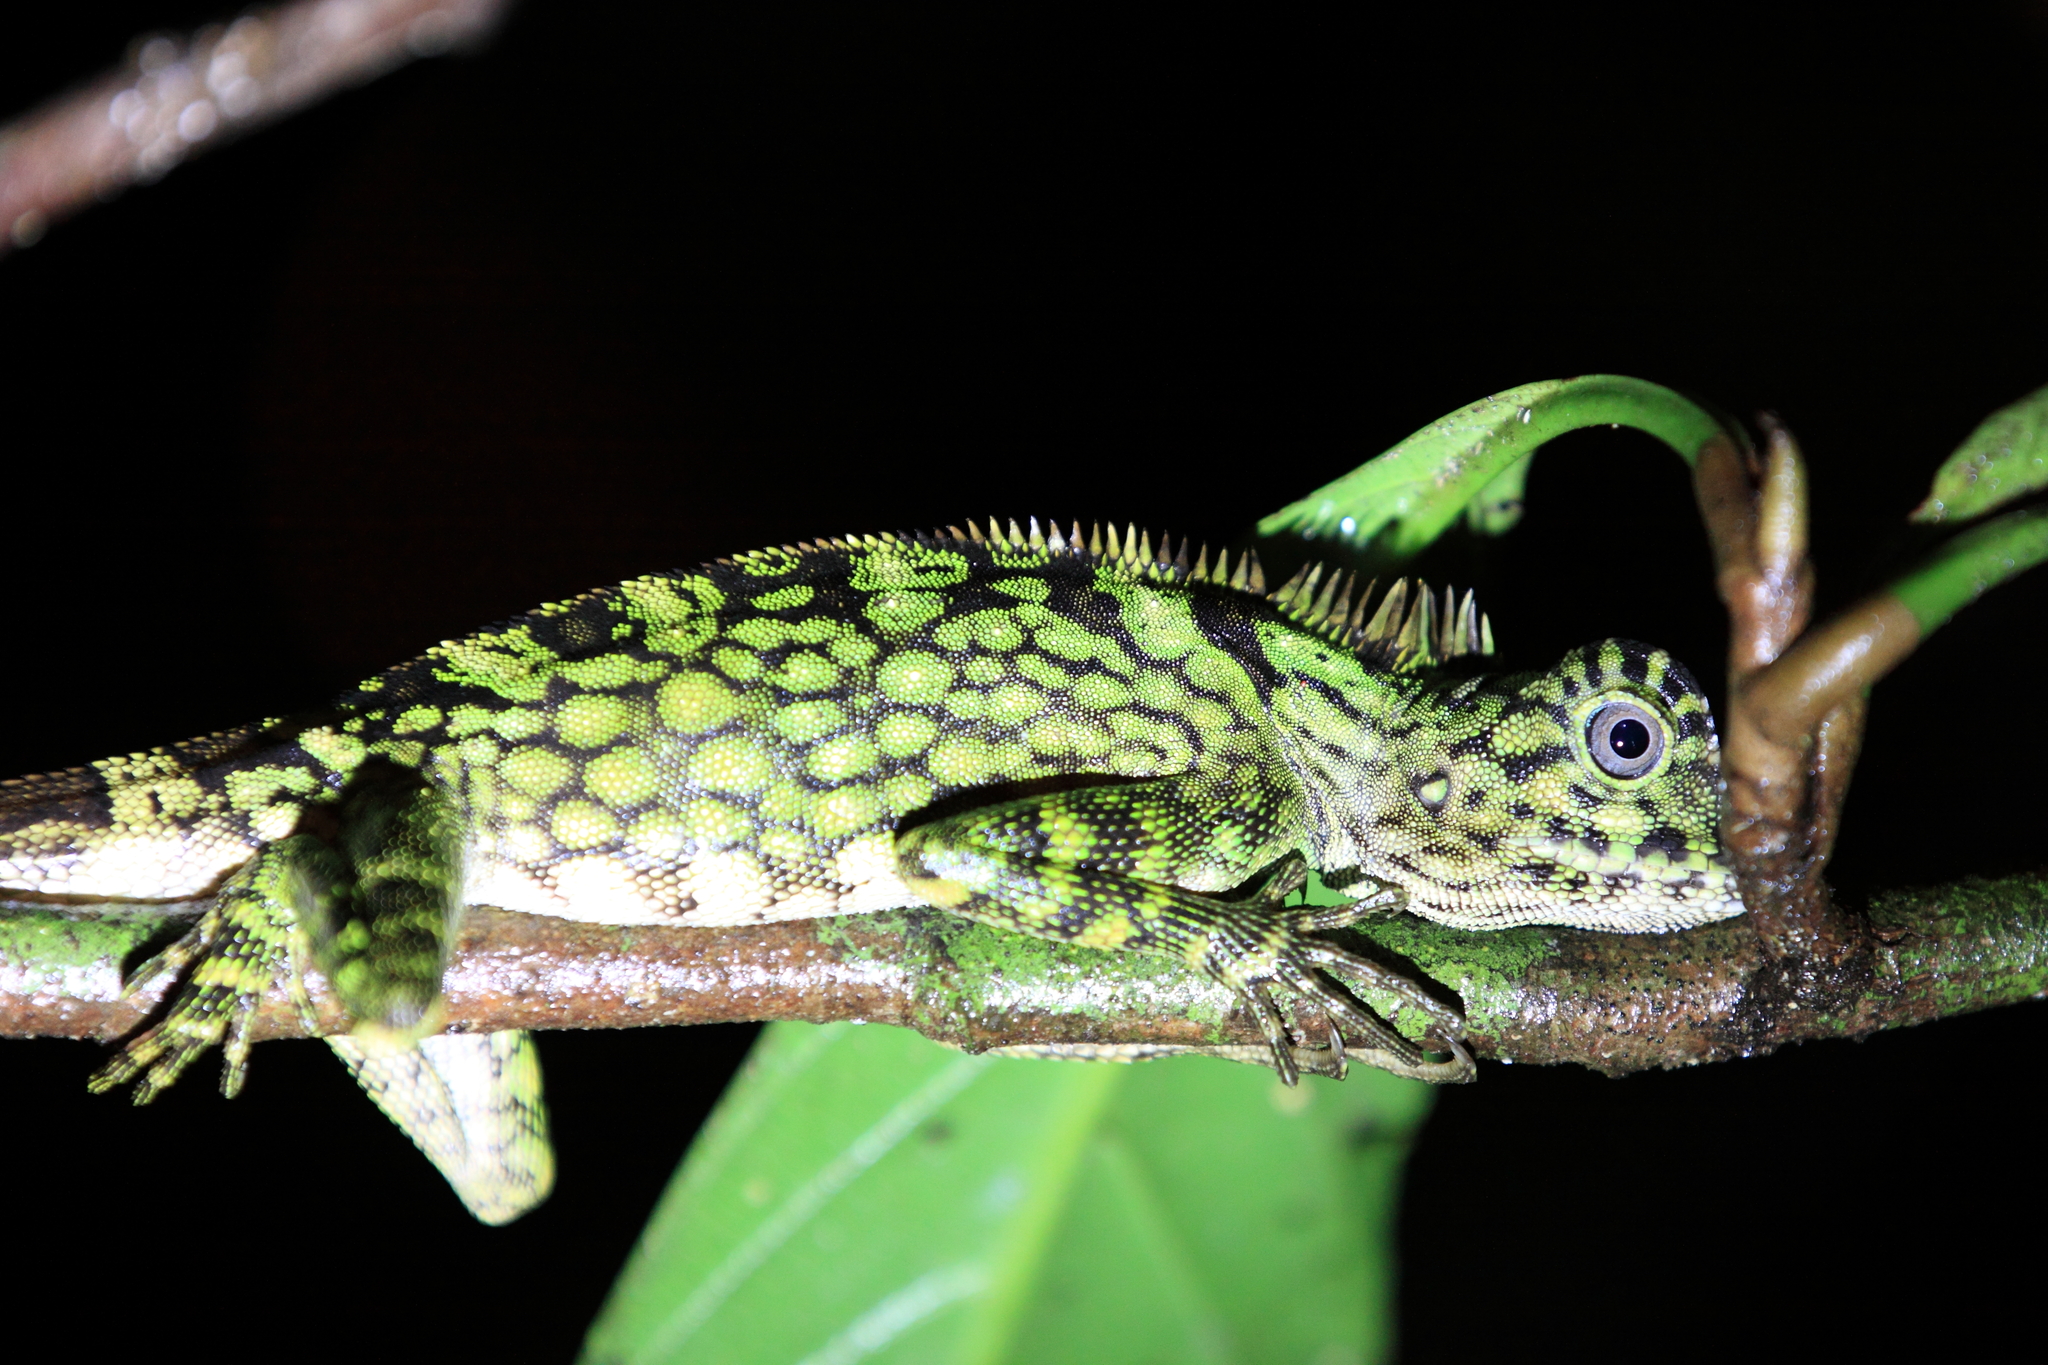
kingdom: Animalia
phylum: Chordata
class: Squamata
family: Agamidae
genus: Gonocephalus
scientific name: Gonocephalus bornensis
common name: Borneo forest dragon
